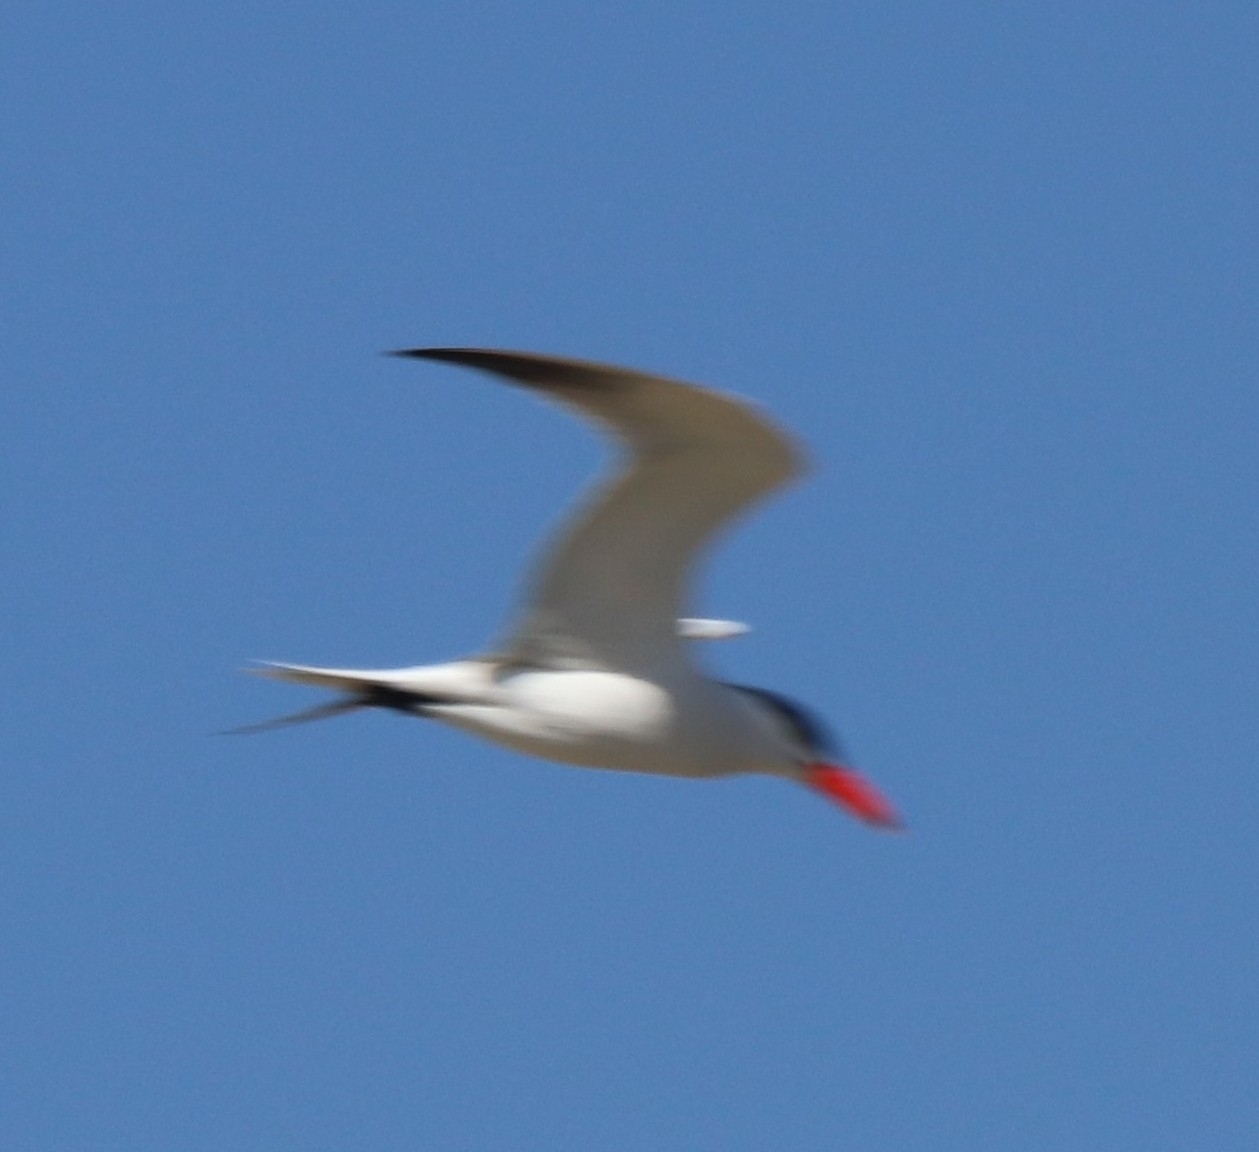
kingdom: Animalia
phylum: Chordata
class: Aves
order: Charadriiformes
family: Laridae
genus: Hydroprogne
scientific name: Hydroprogne caspia
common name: Caspian tern
